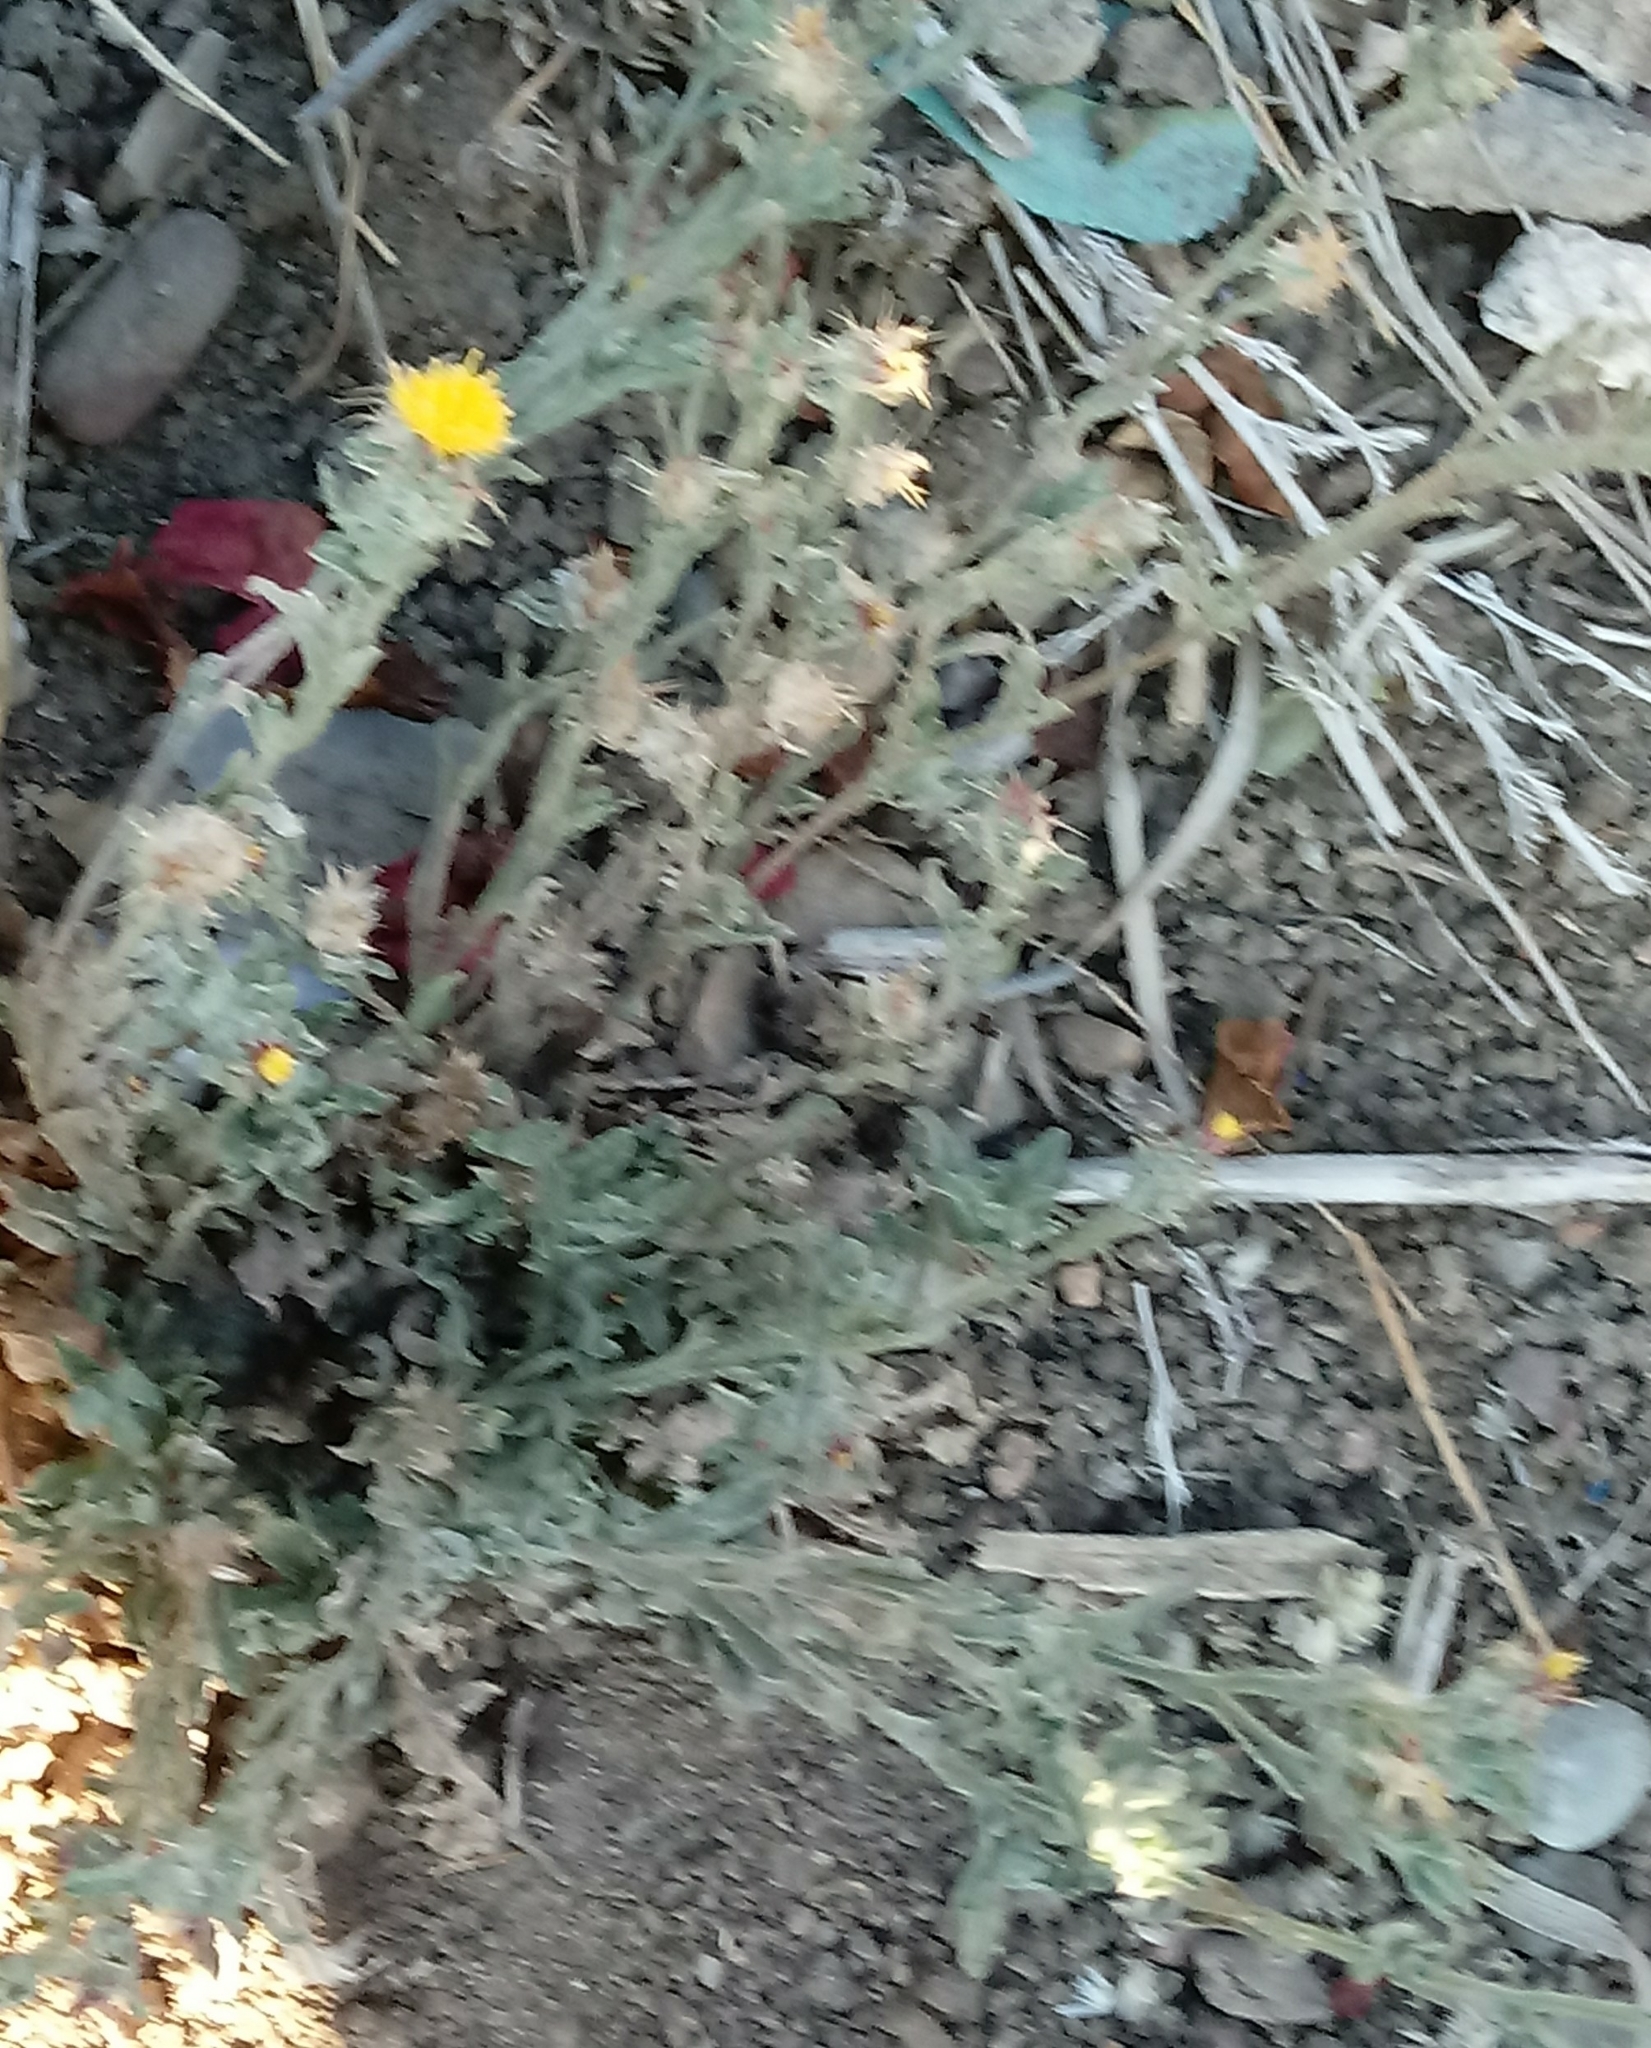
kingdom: Plantae
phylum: Tracheophyta
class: Magnoliopsida
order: Asterales
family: Asteraceae
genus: Centaurea
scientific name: Centaurea melitensis
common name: Maltese star-thistle
